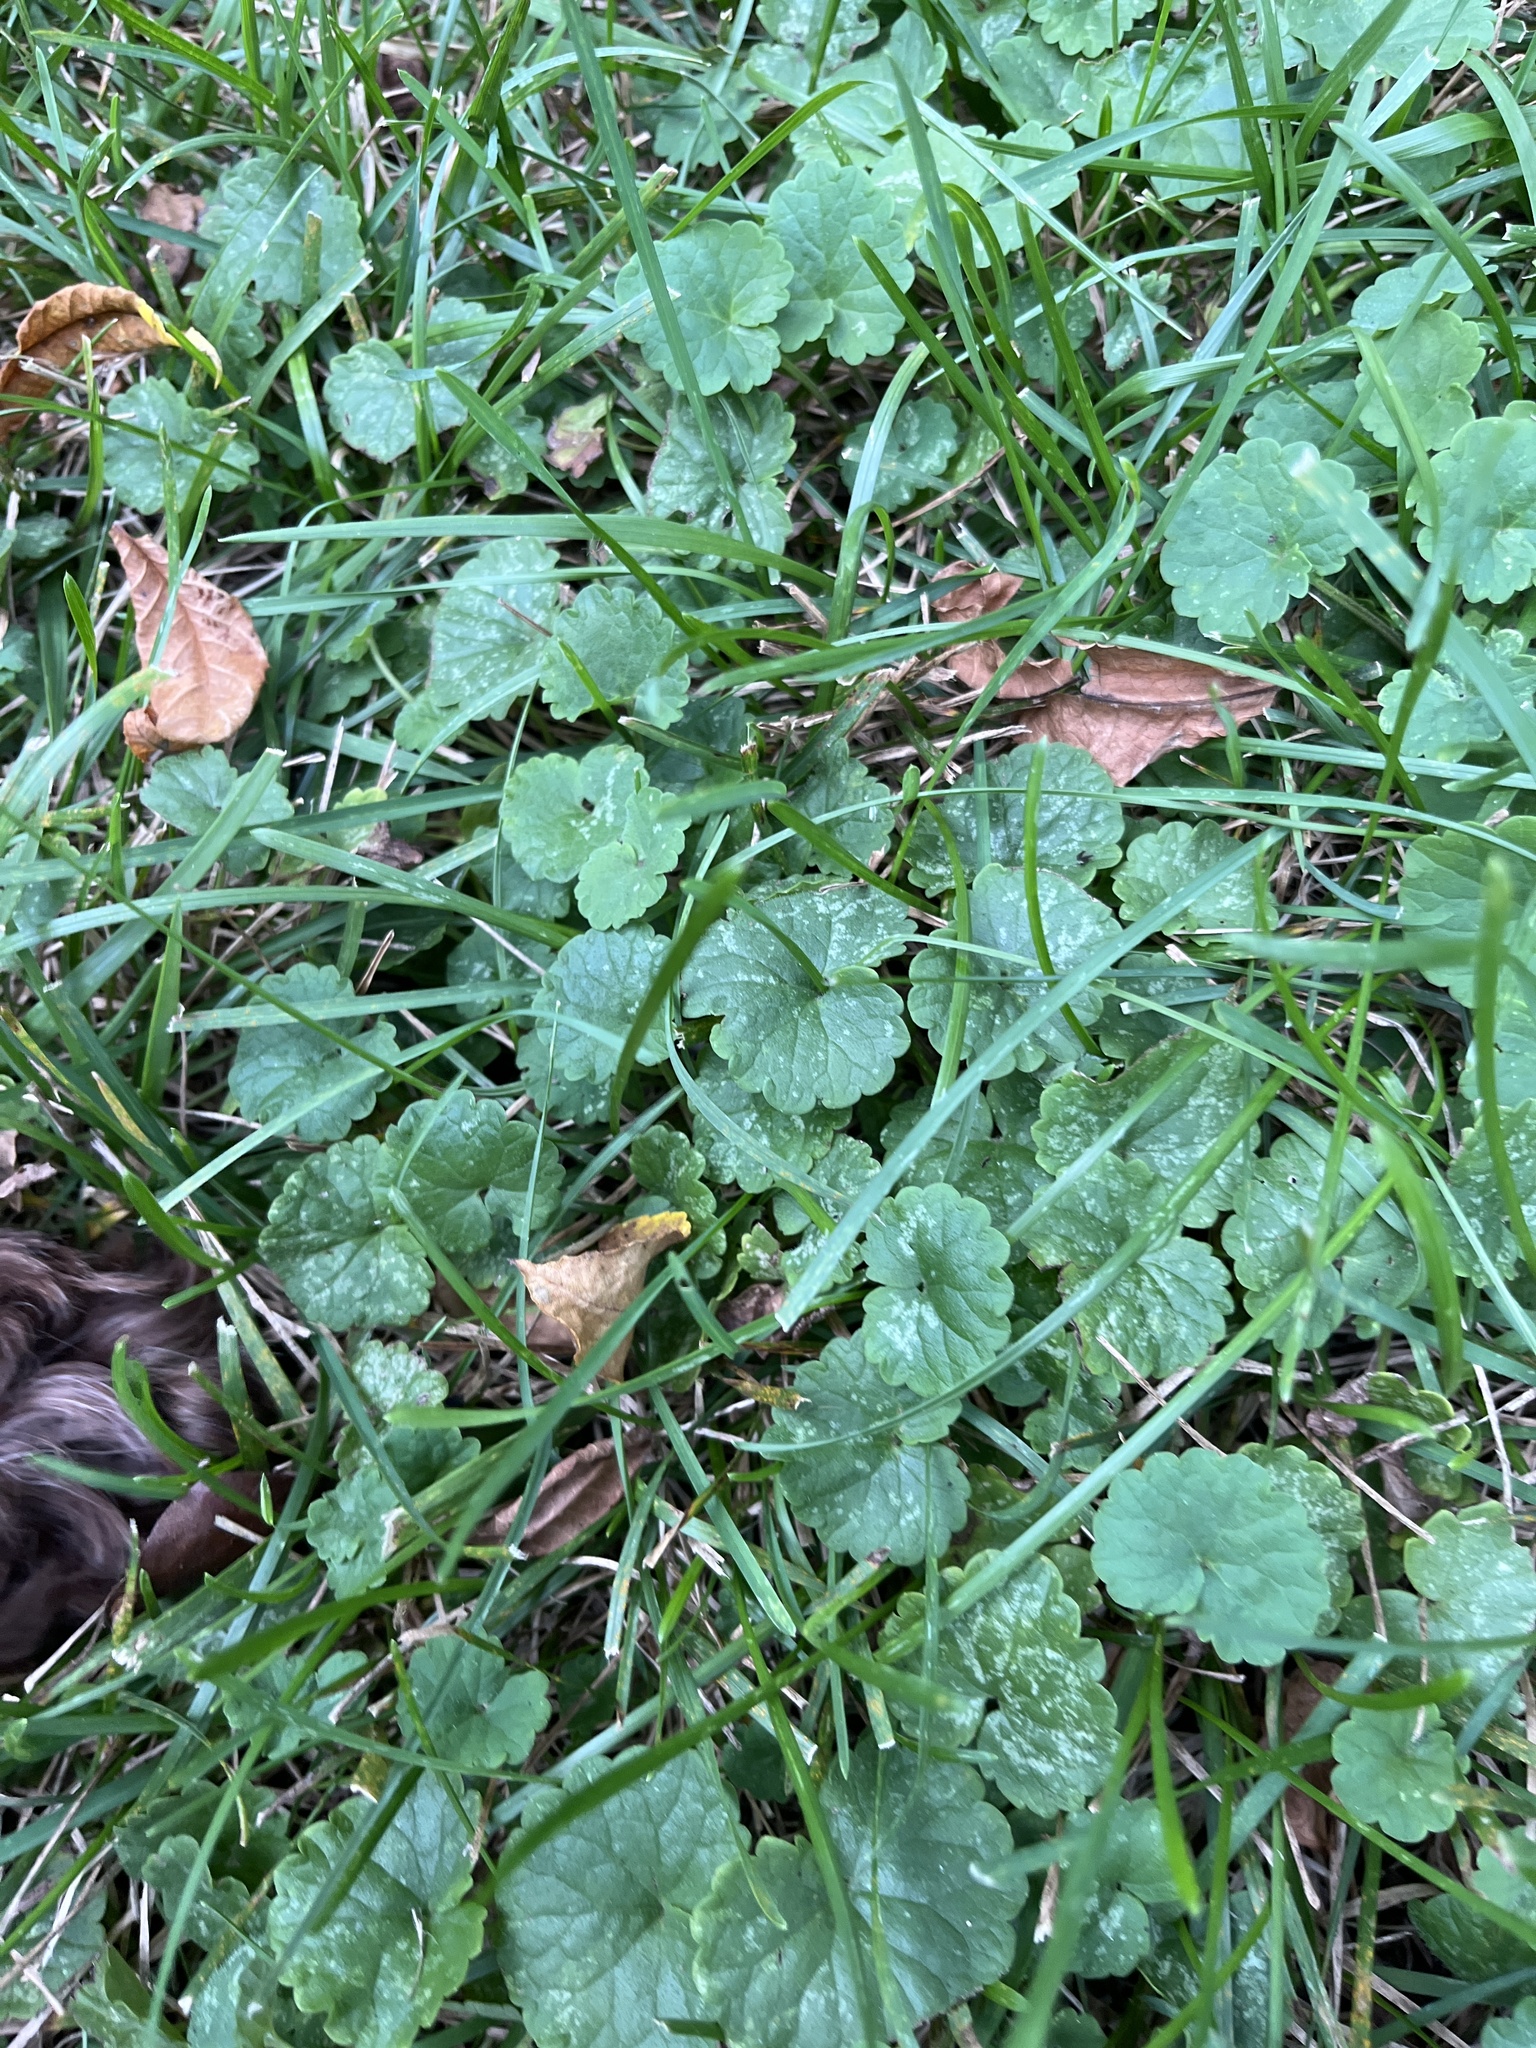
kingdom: Plantae
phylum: Tracheophyta
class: Magnoliopsida
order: Lamiales
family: Lamiaceae
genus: Glechoma
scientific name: Glechoma hederacea
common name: Ground ivy
